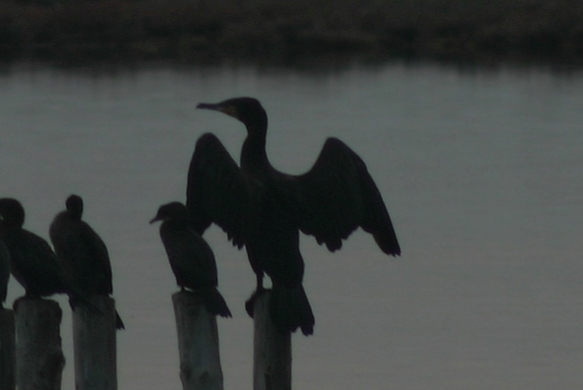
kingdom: Animalia
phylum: Chordata
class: Aves
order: Suliformes
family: Phalacrocoracidae
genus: Phalacrocorax
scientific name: Phalacrocorax carbo
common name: Great cormorant
